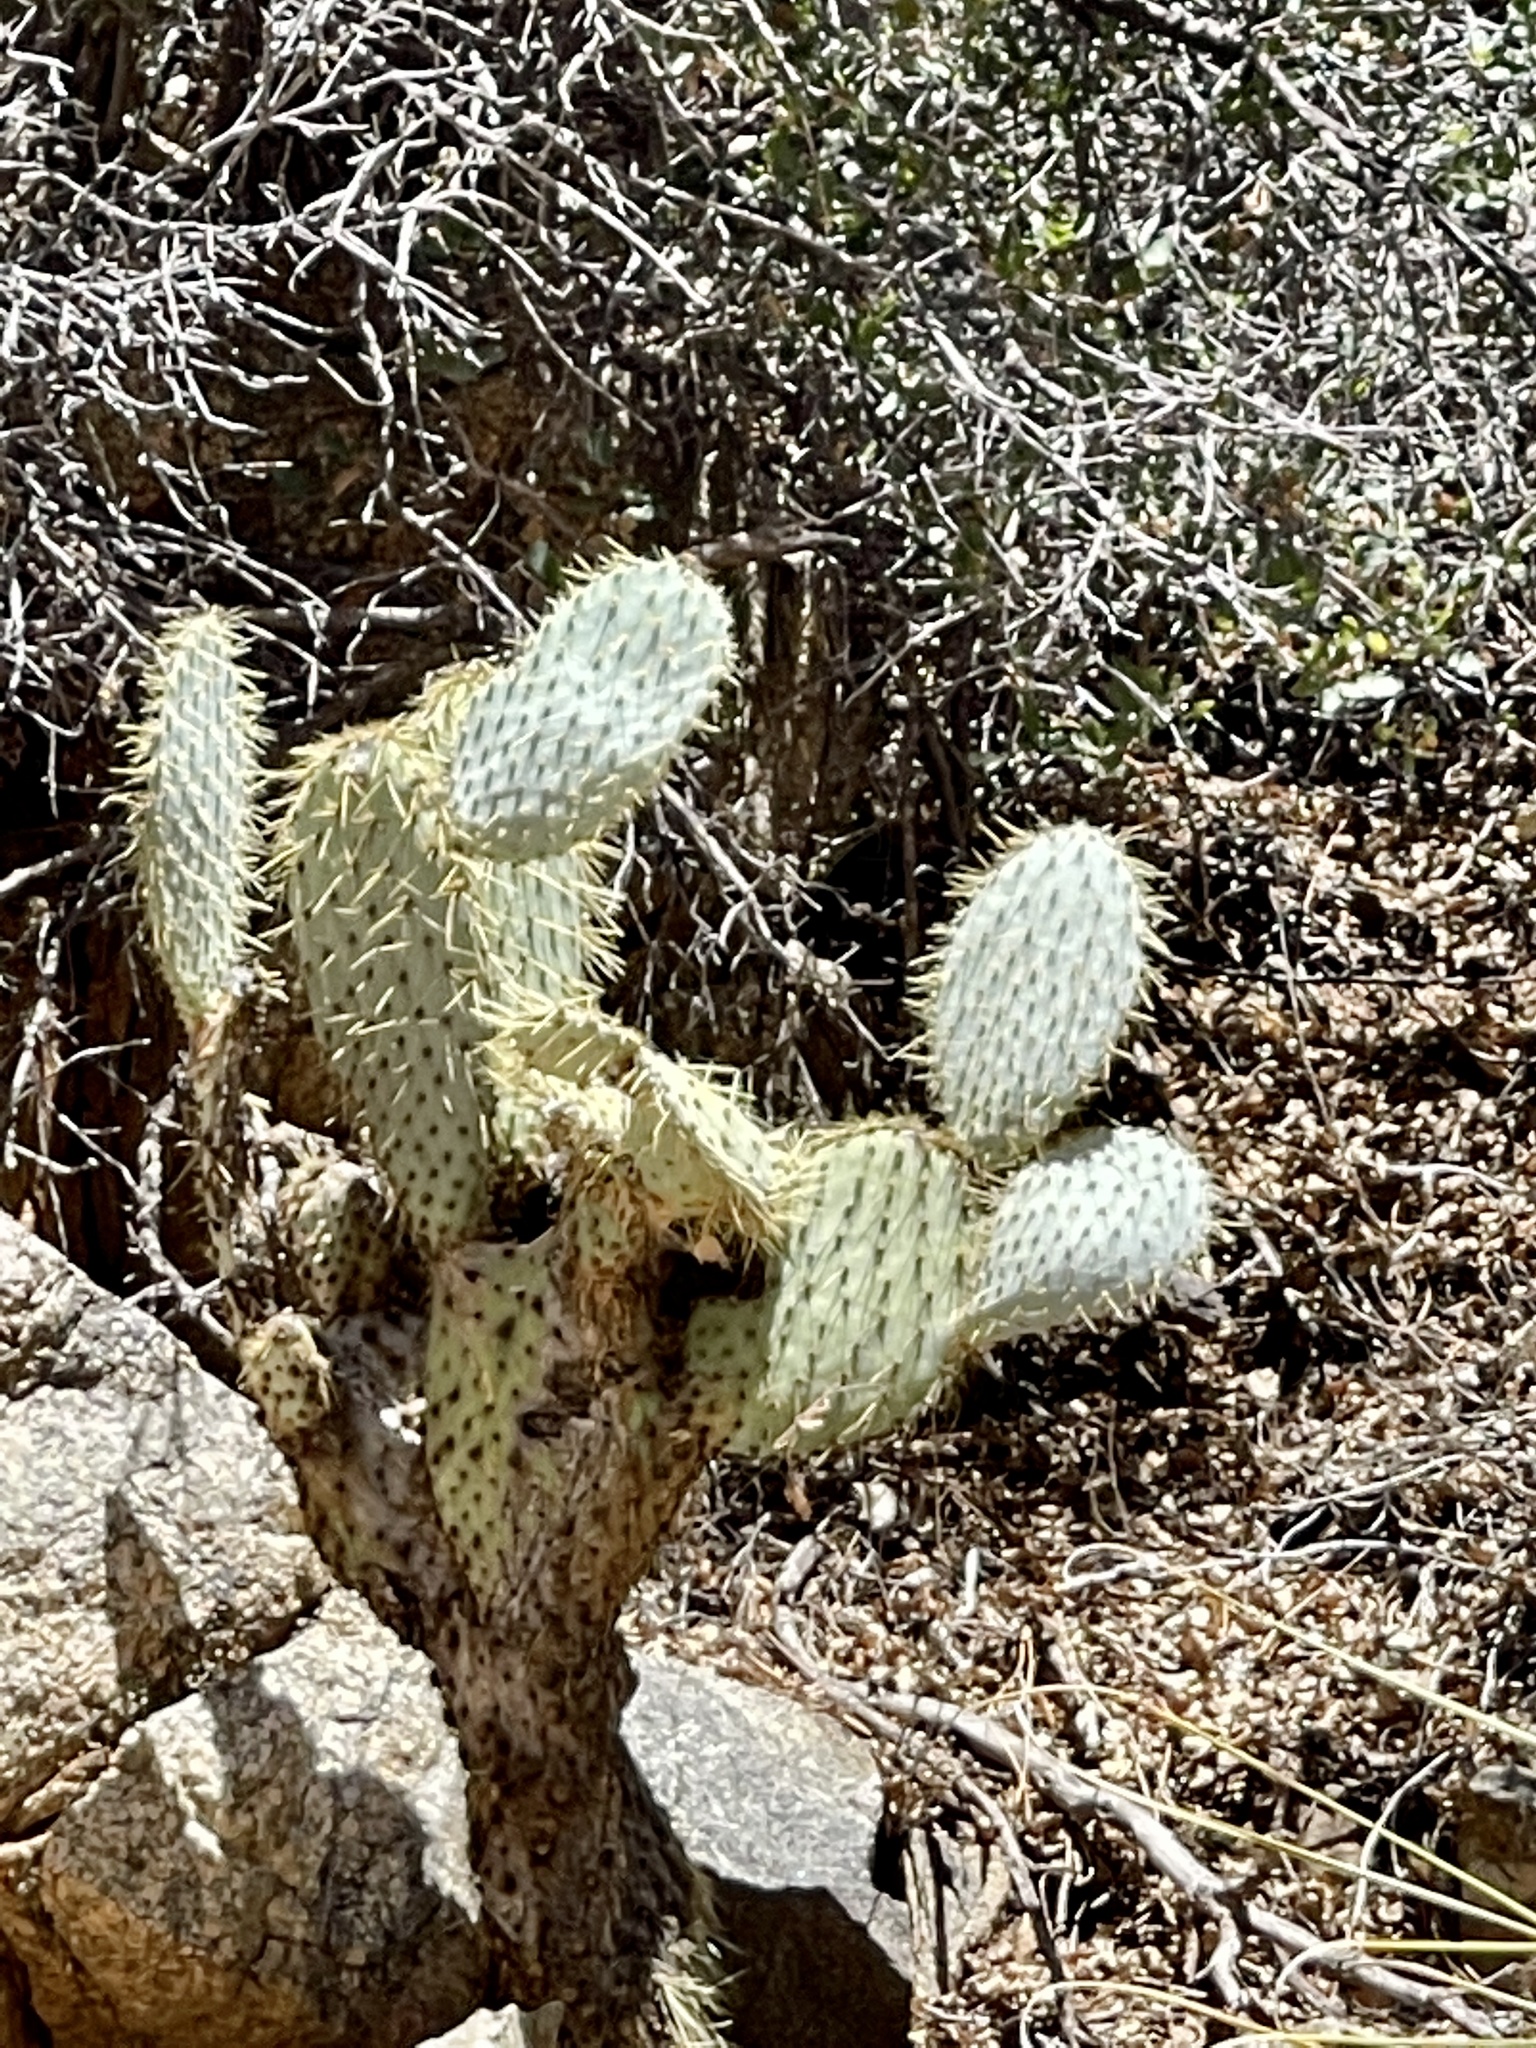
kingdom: Plantae
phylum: Tracheophyta
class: Magnoliopsida
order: Caryophyllales
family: Cactaceae
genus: Opuntia
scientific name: Opuntia chlorotica
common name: Dollar-joint prickly-pear
